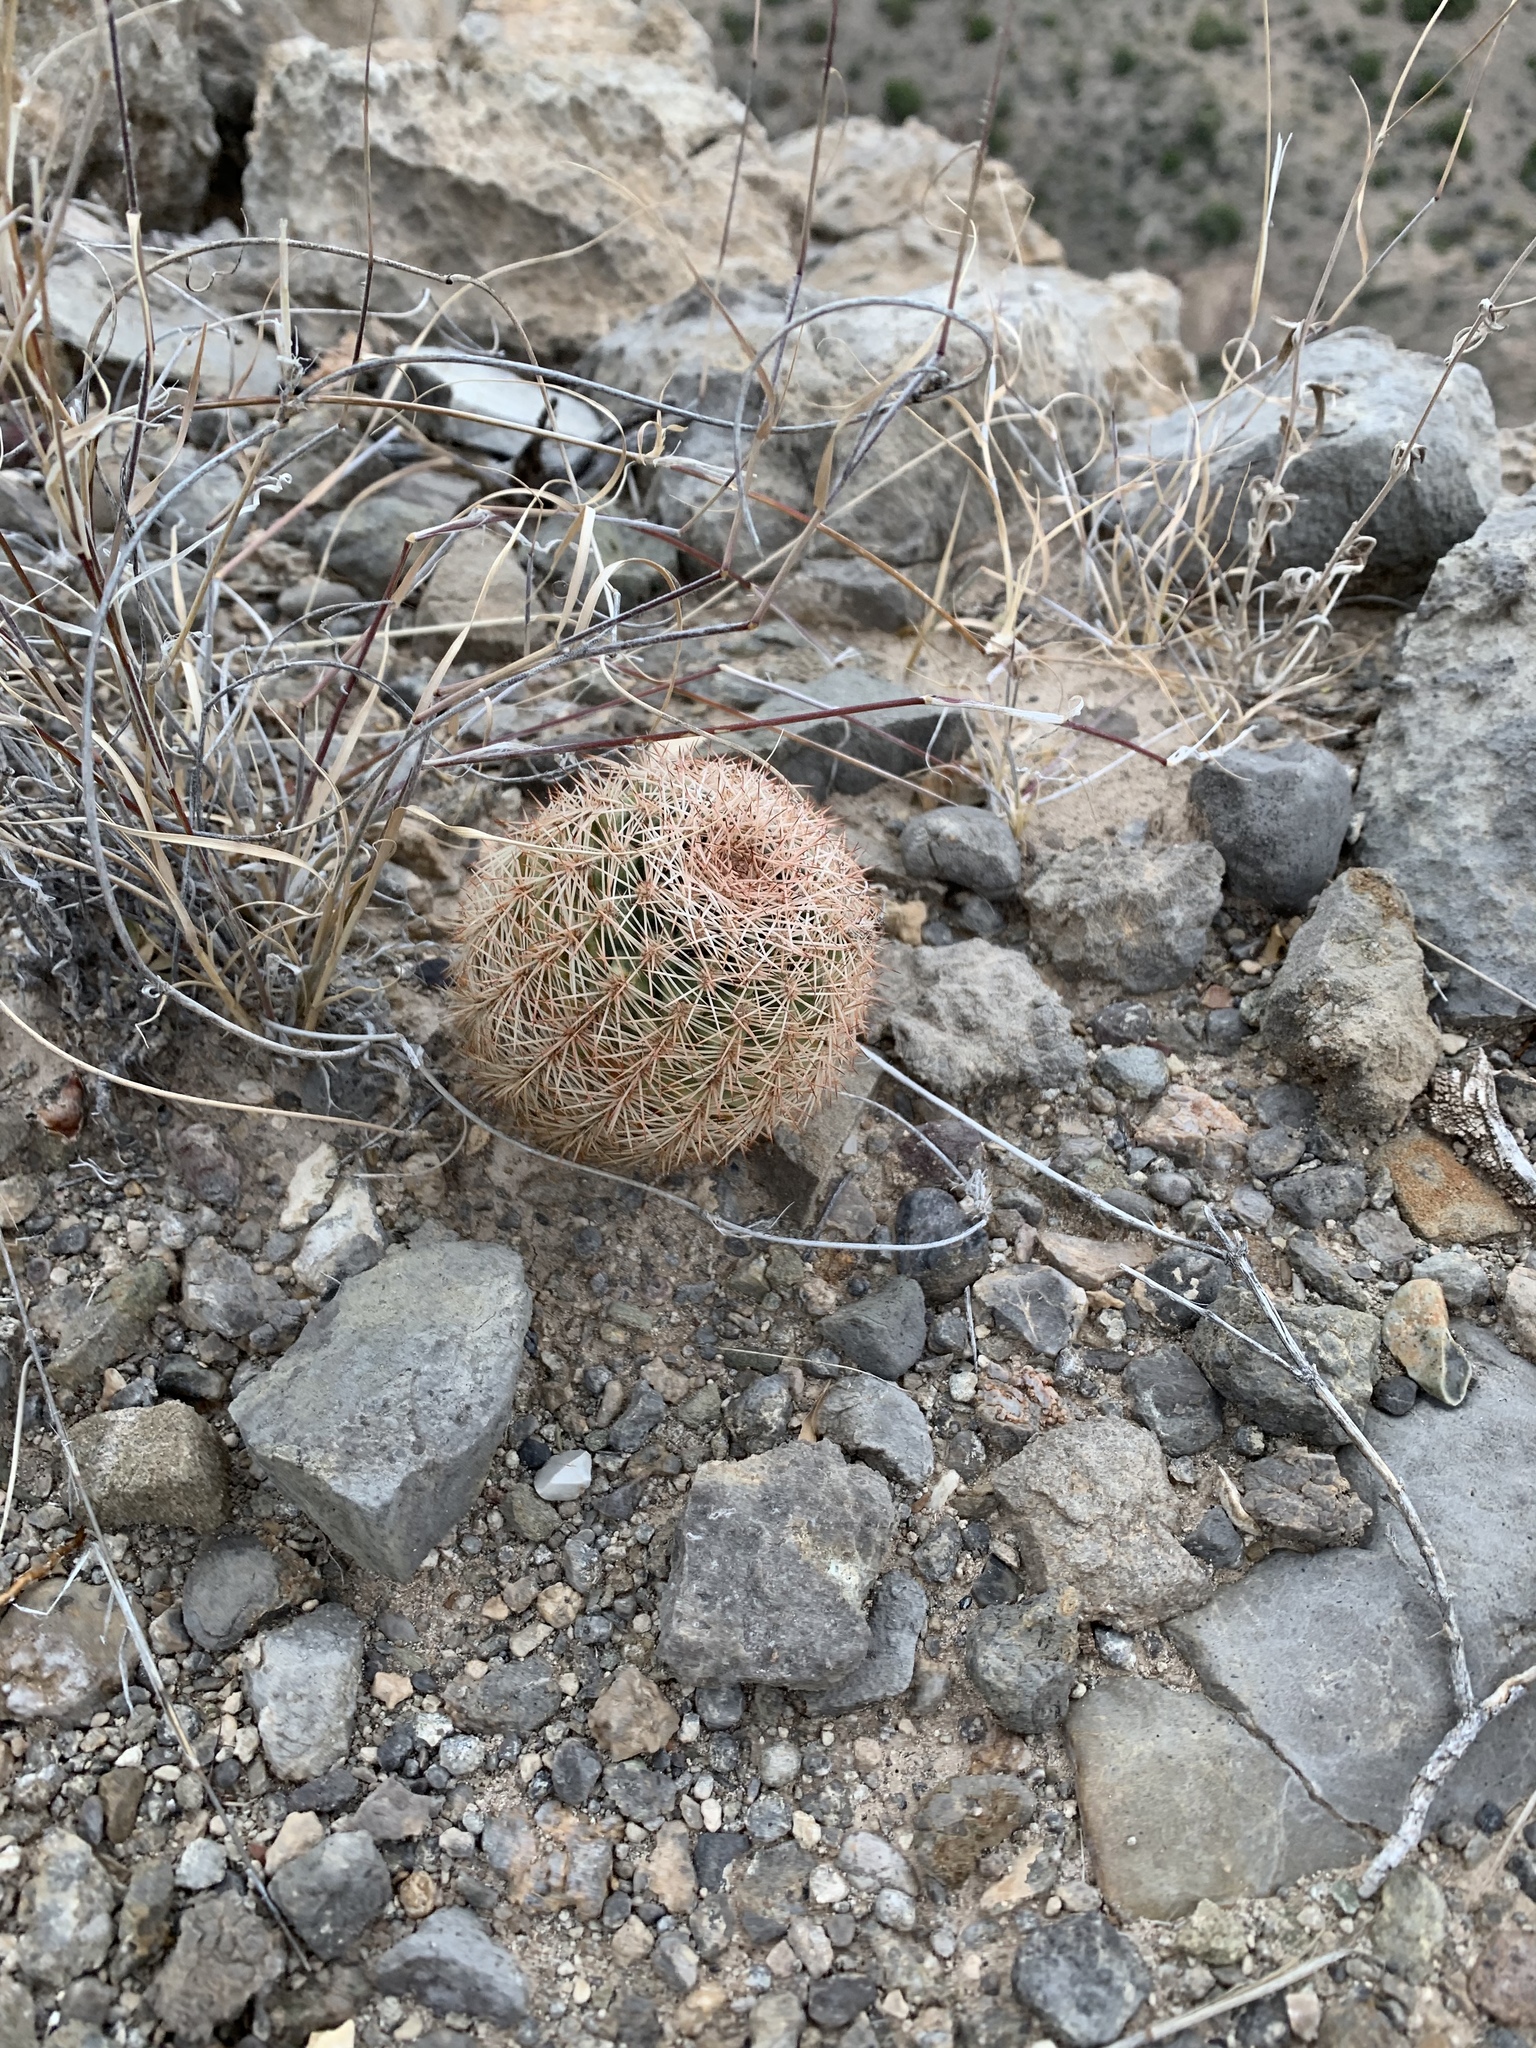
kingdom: Plantae
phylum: Tracheophyta
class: Magnoliopsida
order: Caryophyllales
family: Cactaceae
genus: Echinocereus
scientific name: Echinocereus dasyacanthus
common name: Spiny hedgehog cactus
